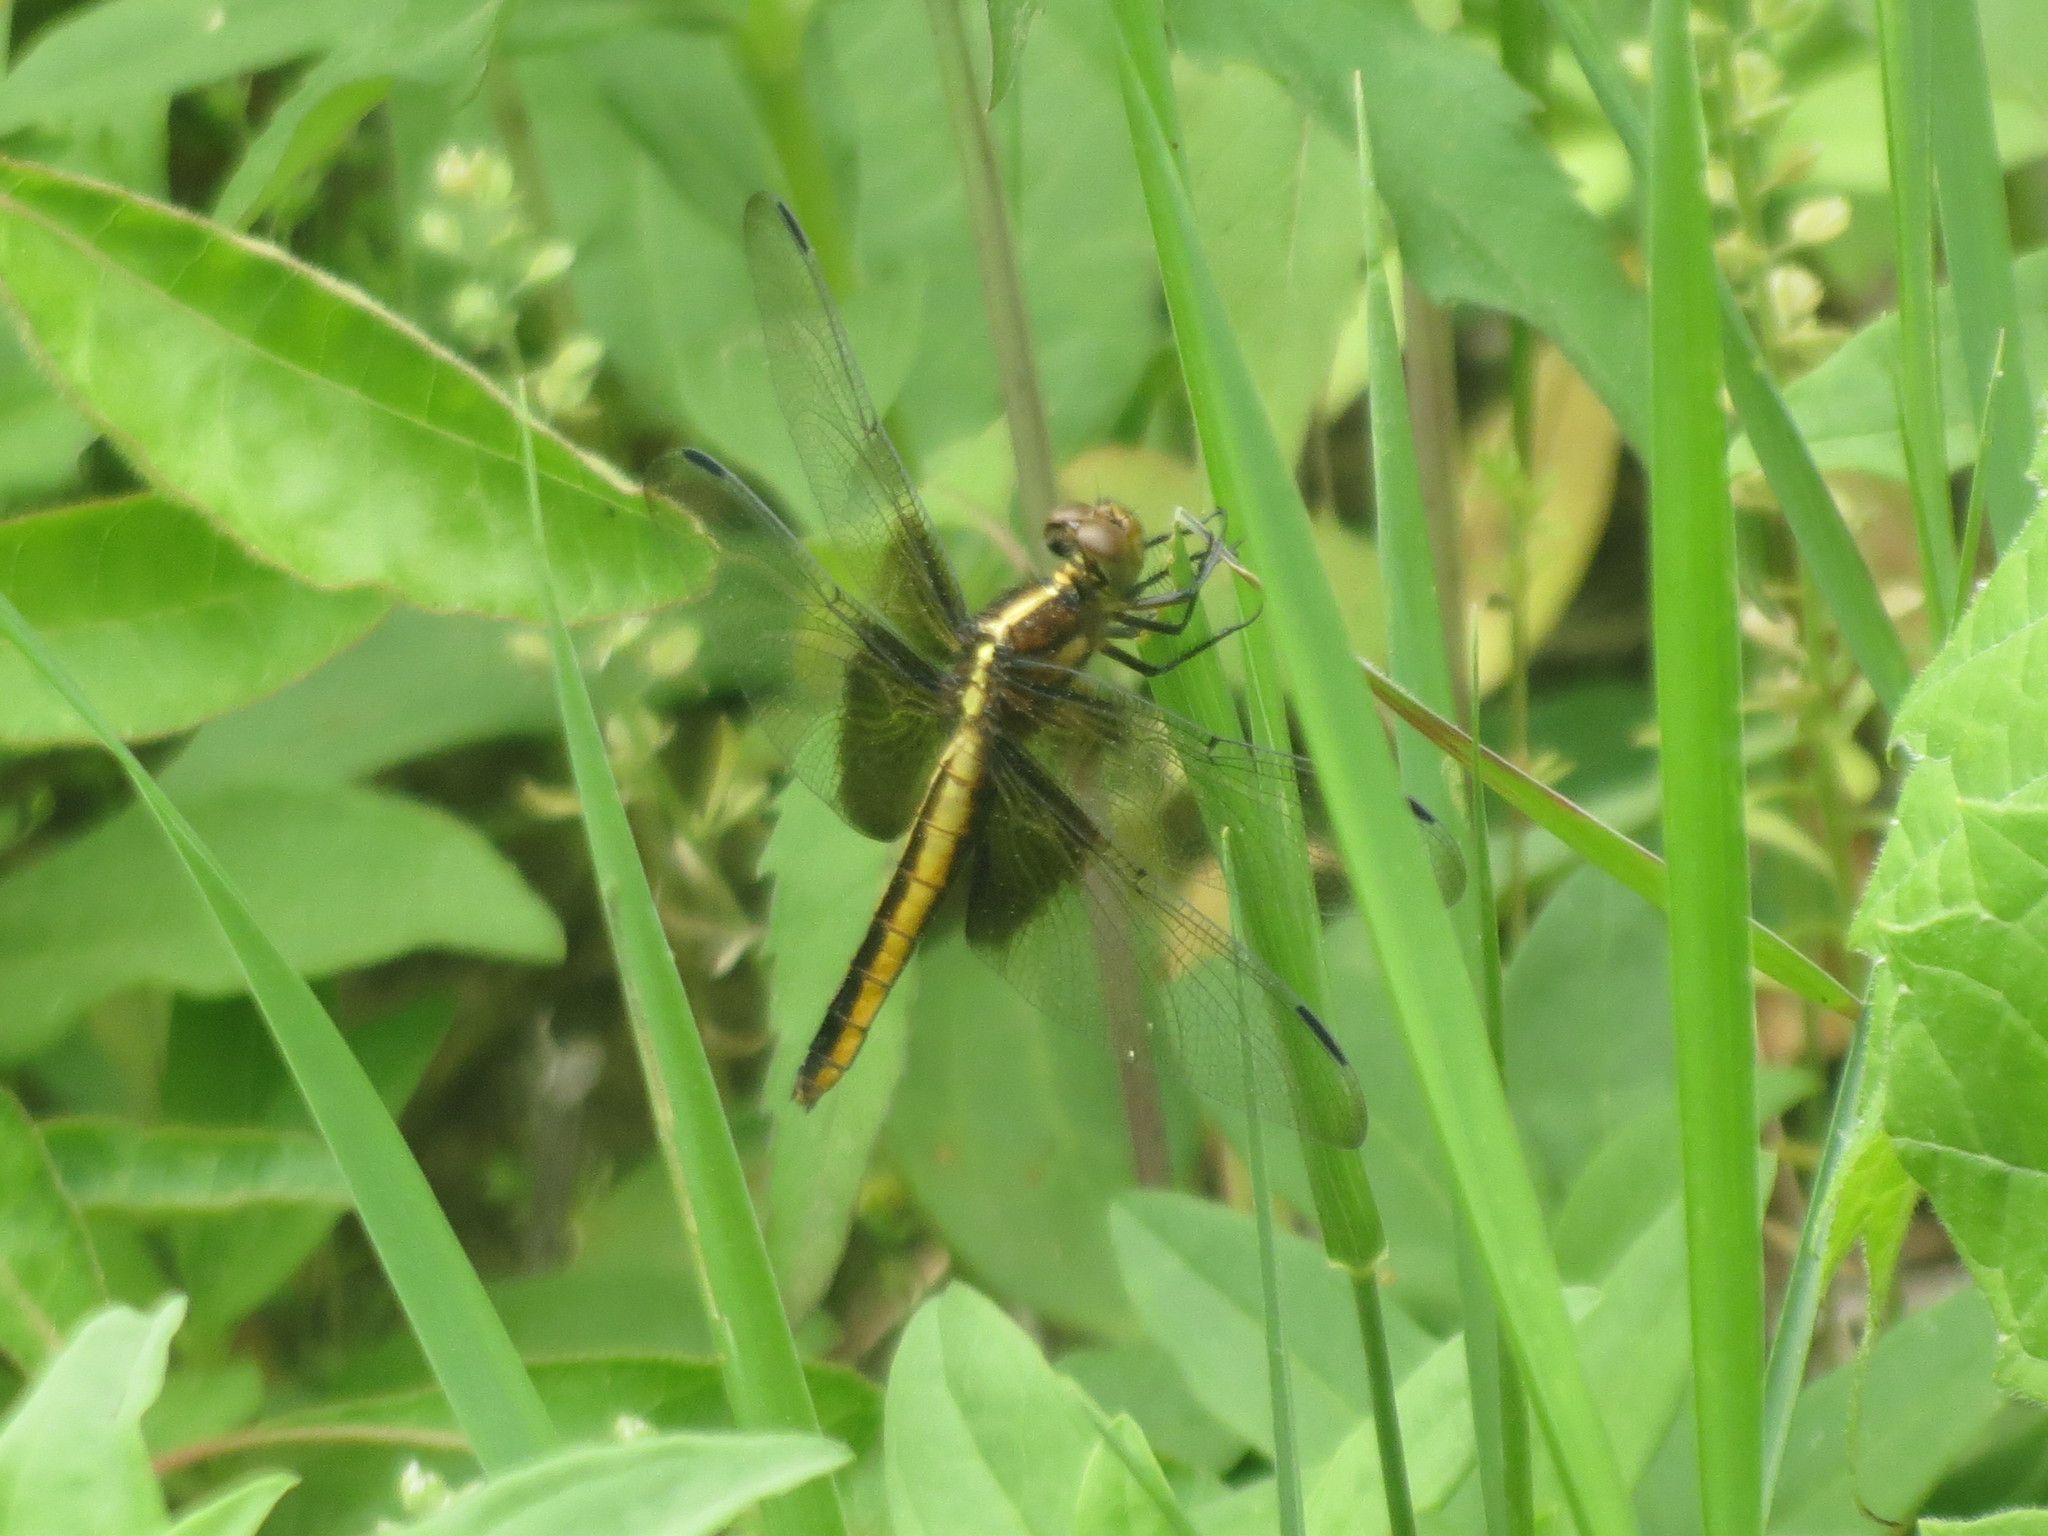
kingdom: Animalia
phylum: Arthropoda
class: Insecta
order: Odonata
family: Libellulidae
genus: Libellula
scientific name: Libellula luctuosa
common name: Widow skimmer
